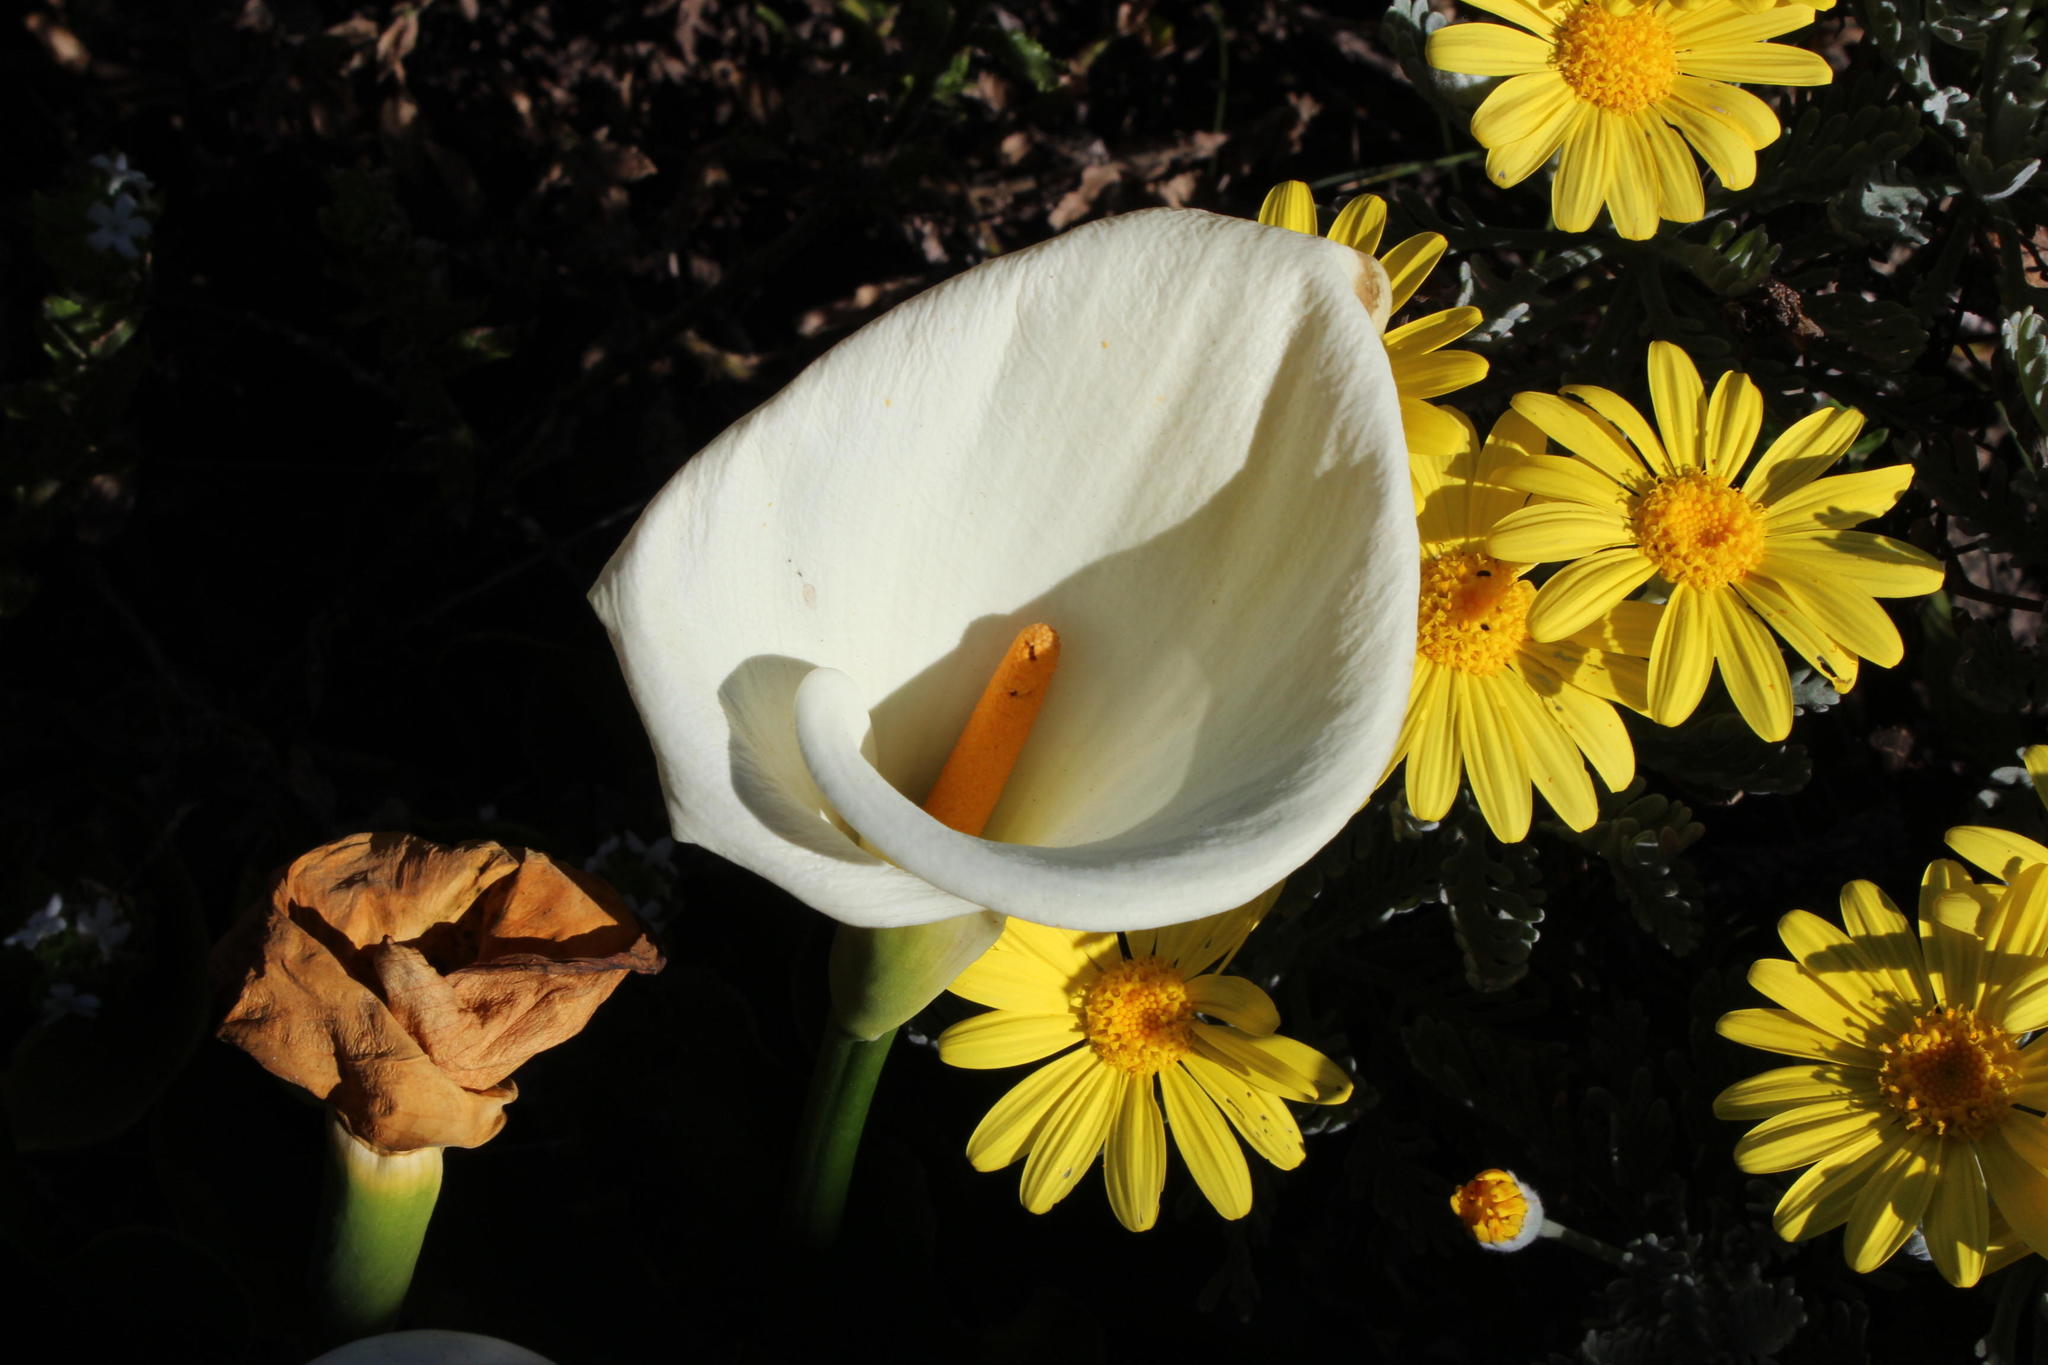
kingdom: Plantae
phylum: Tracheophyta
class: Liliopsida
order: Alismatales
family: Araceae
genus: Zantedeschia
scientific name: Zantedeschia aethiopica
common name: Altar-lily
